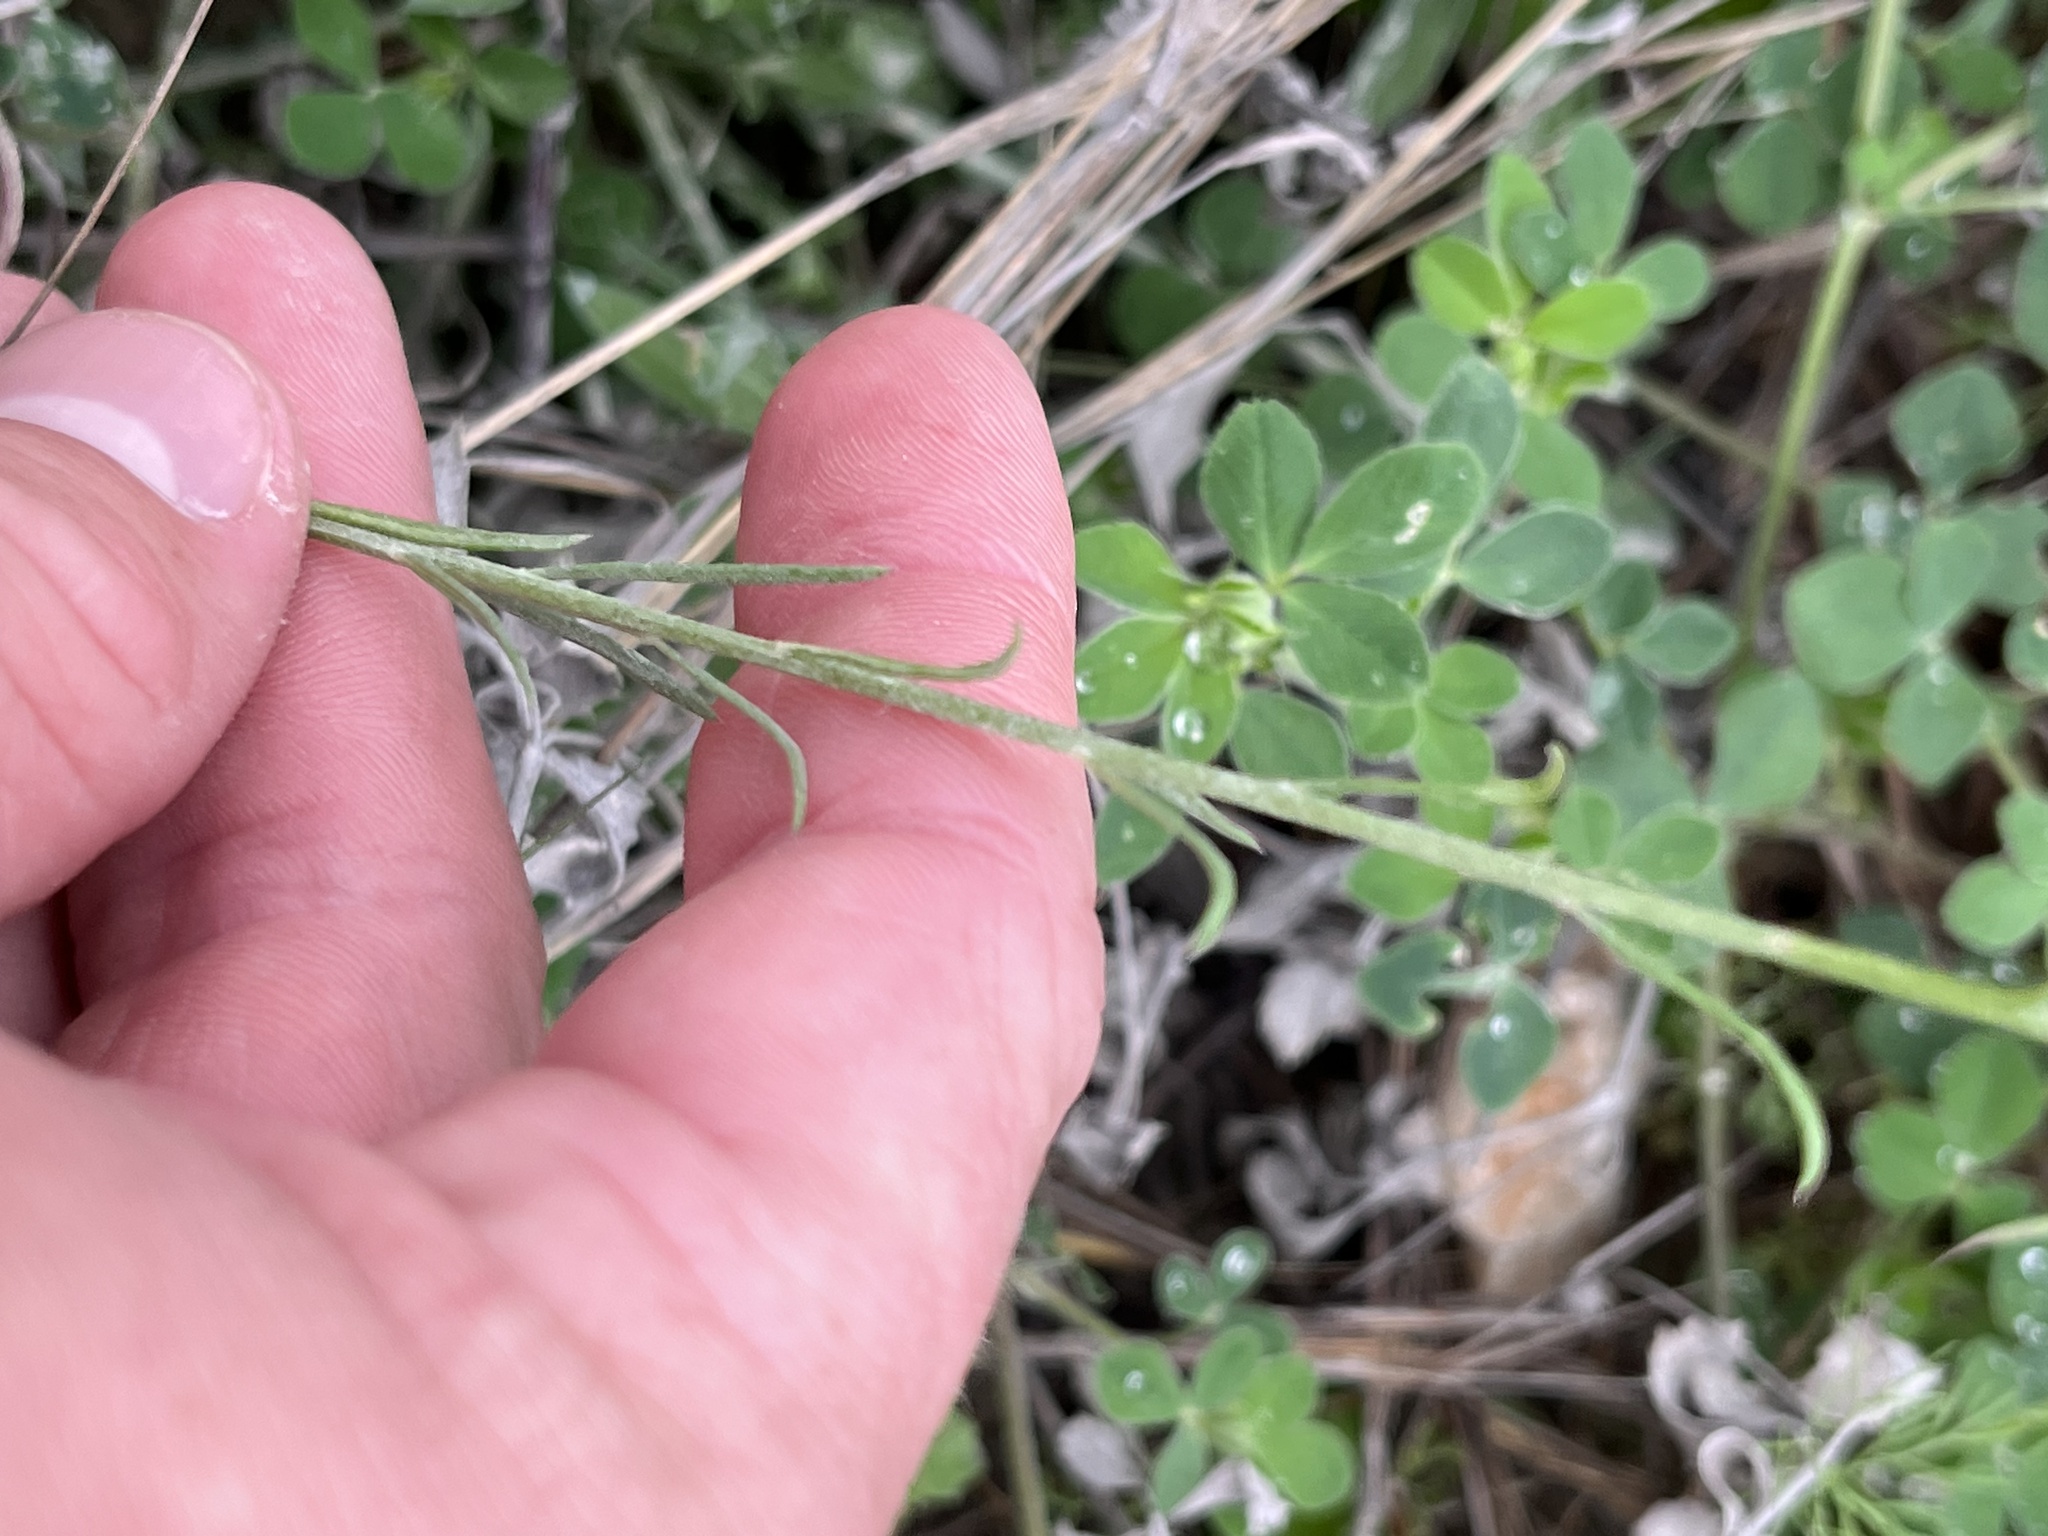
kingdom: Plantae
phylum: Tracheophyta
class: Magnoliopsida
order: Fabales
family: Polygalaceae
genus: Polygala
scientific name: Polygala alba
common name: White milkwort
